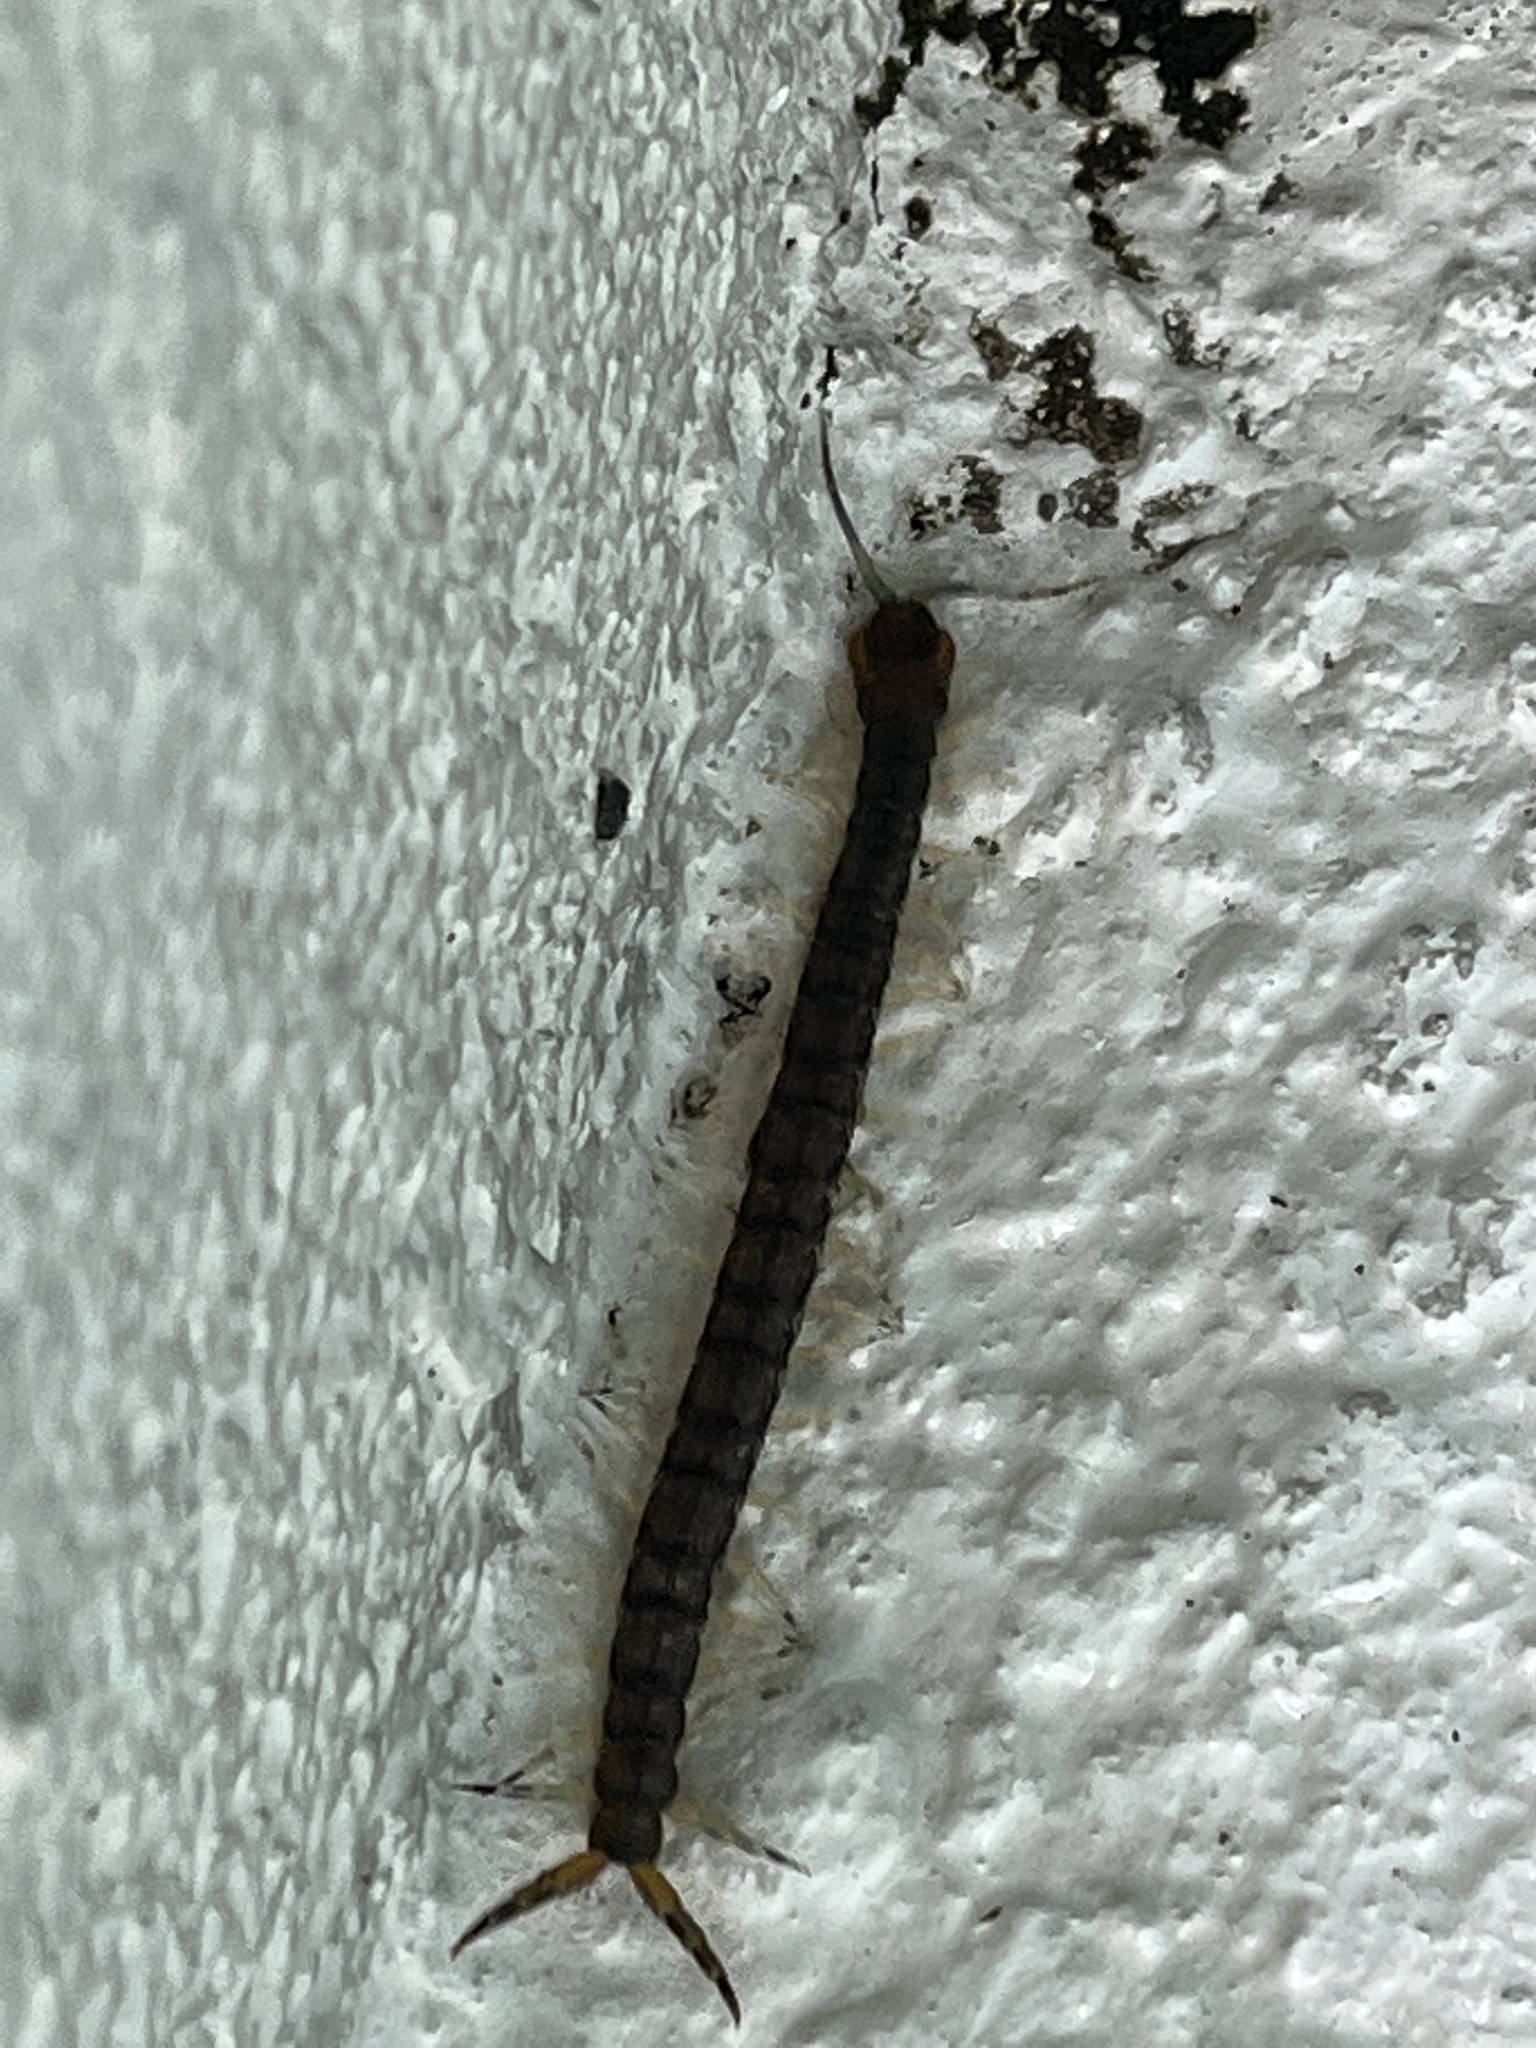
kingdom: Animalia
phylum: Arthropoda
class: Chilopoda
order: Scolopendromorpha
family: Scolopendridae
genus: Hemiscolopendra
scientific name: Hemiscolopendra marginata
